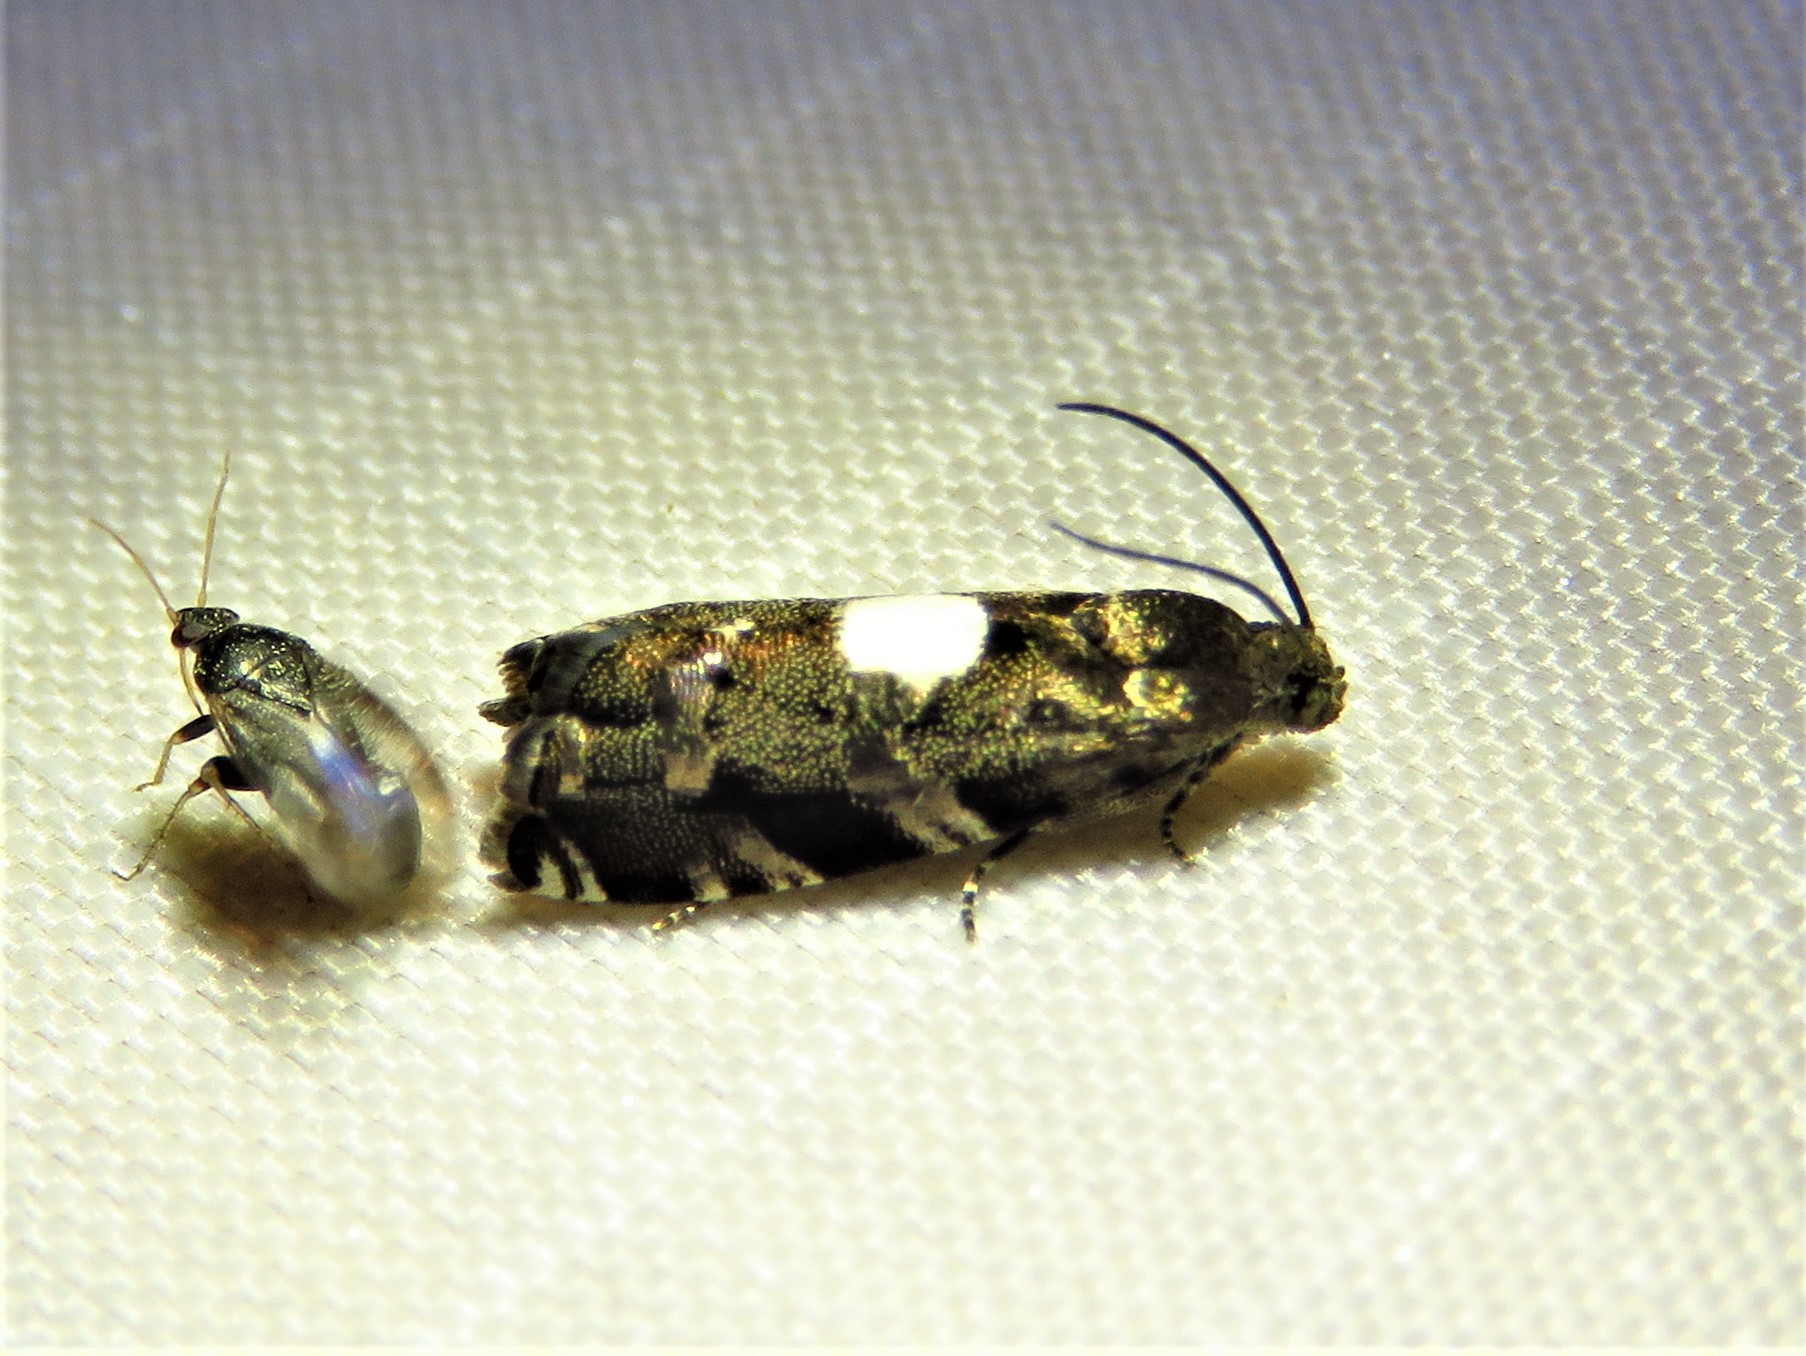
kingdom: Animalia
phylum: Arthropoda
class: Insecta
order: Lepidoptera
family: Tortricidae
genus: Cydia
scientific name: Cydia albimaculana
